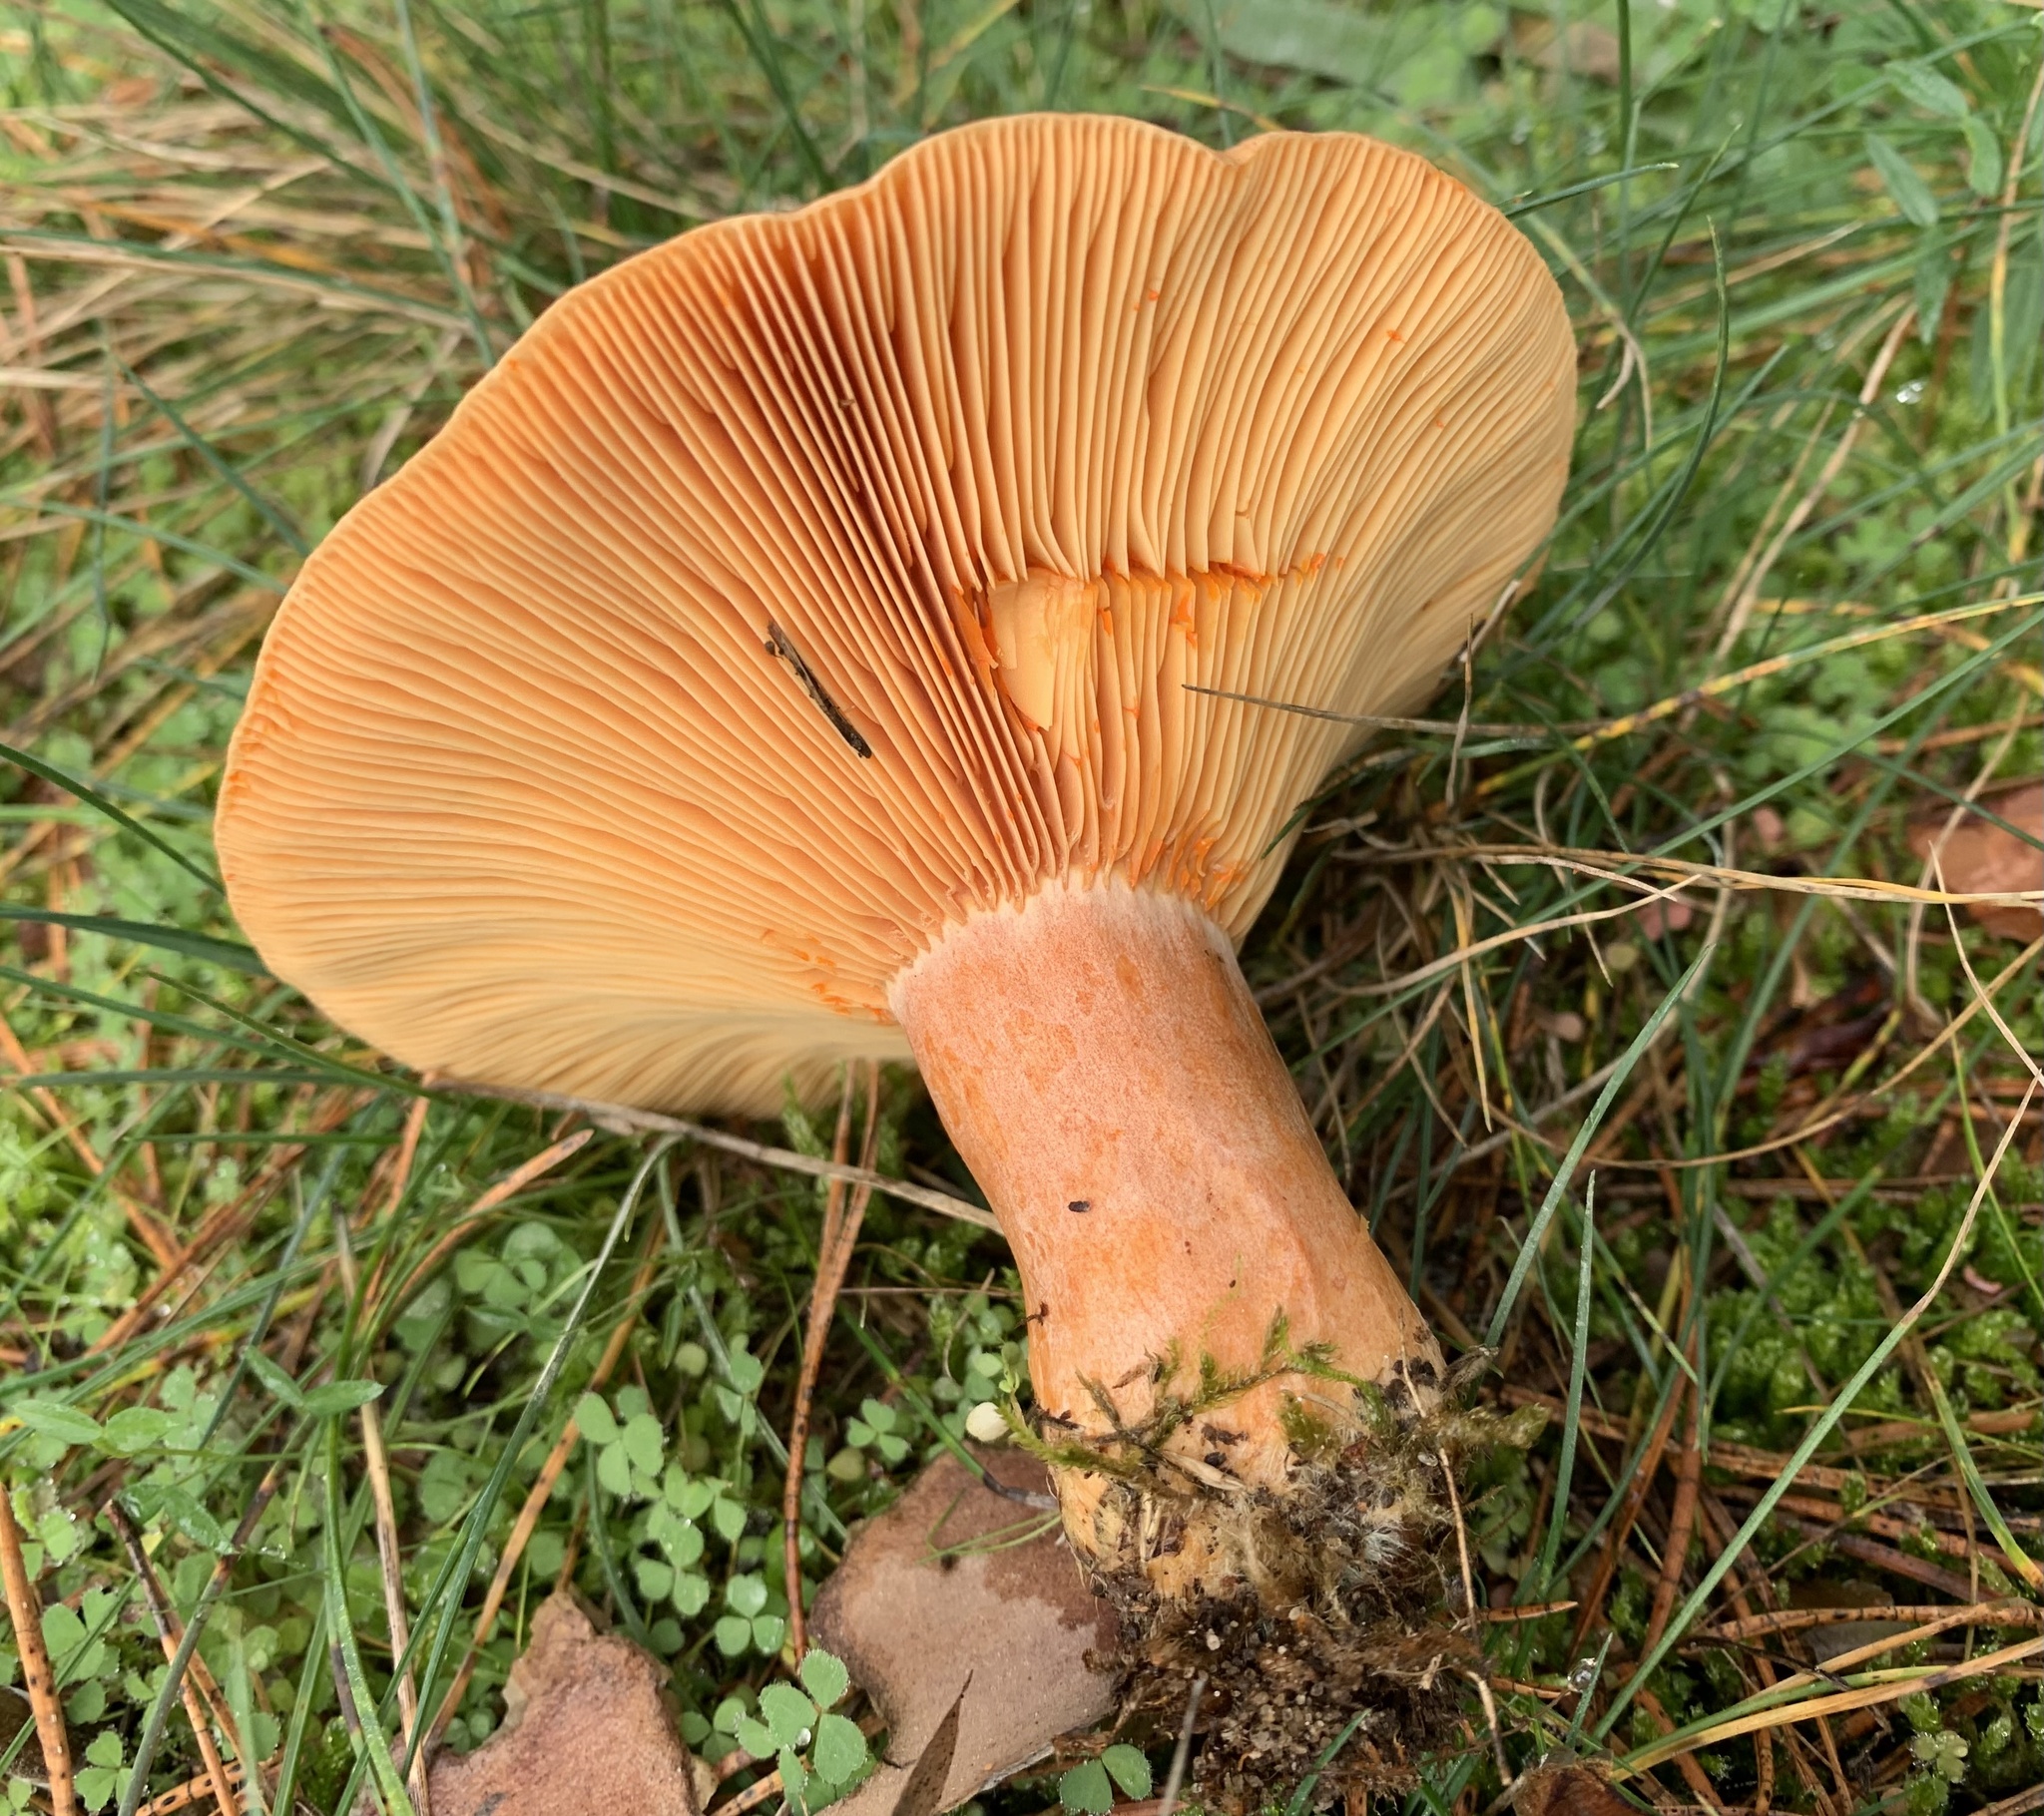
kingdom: Fungi
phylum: Basidiomycota
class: Agaricomycetes
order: Russulales
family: Russulaceae
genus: Lactarius
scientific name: Lactarius deliciosus
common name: Saffron milk-cap
